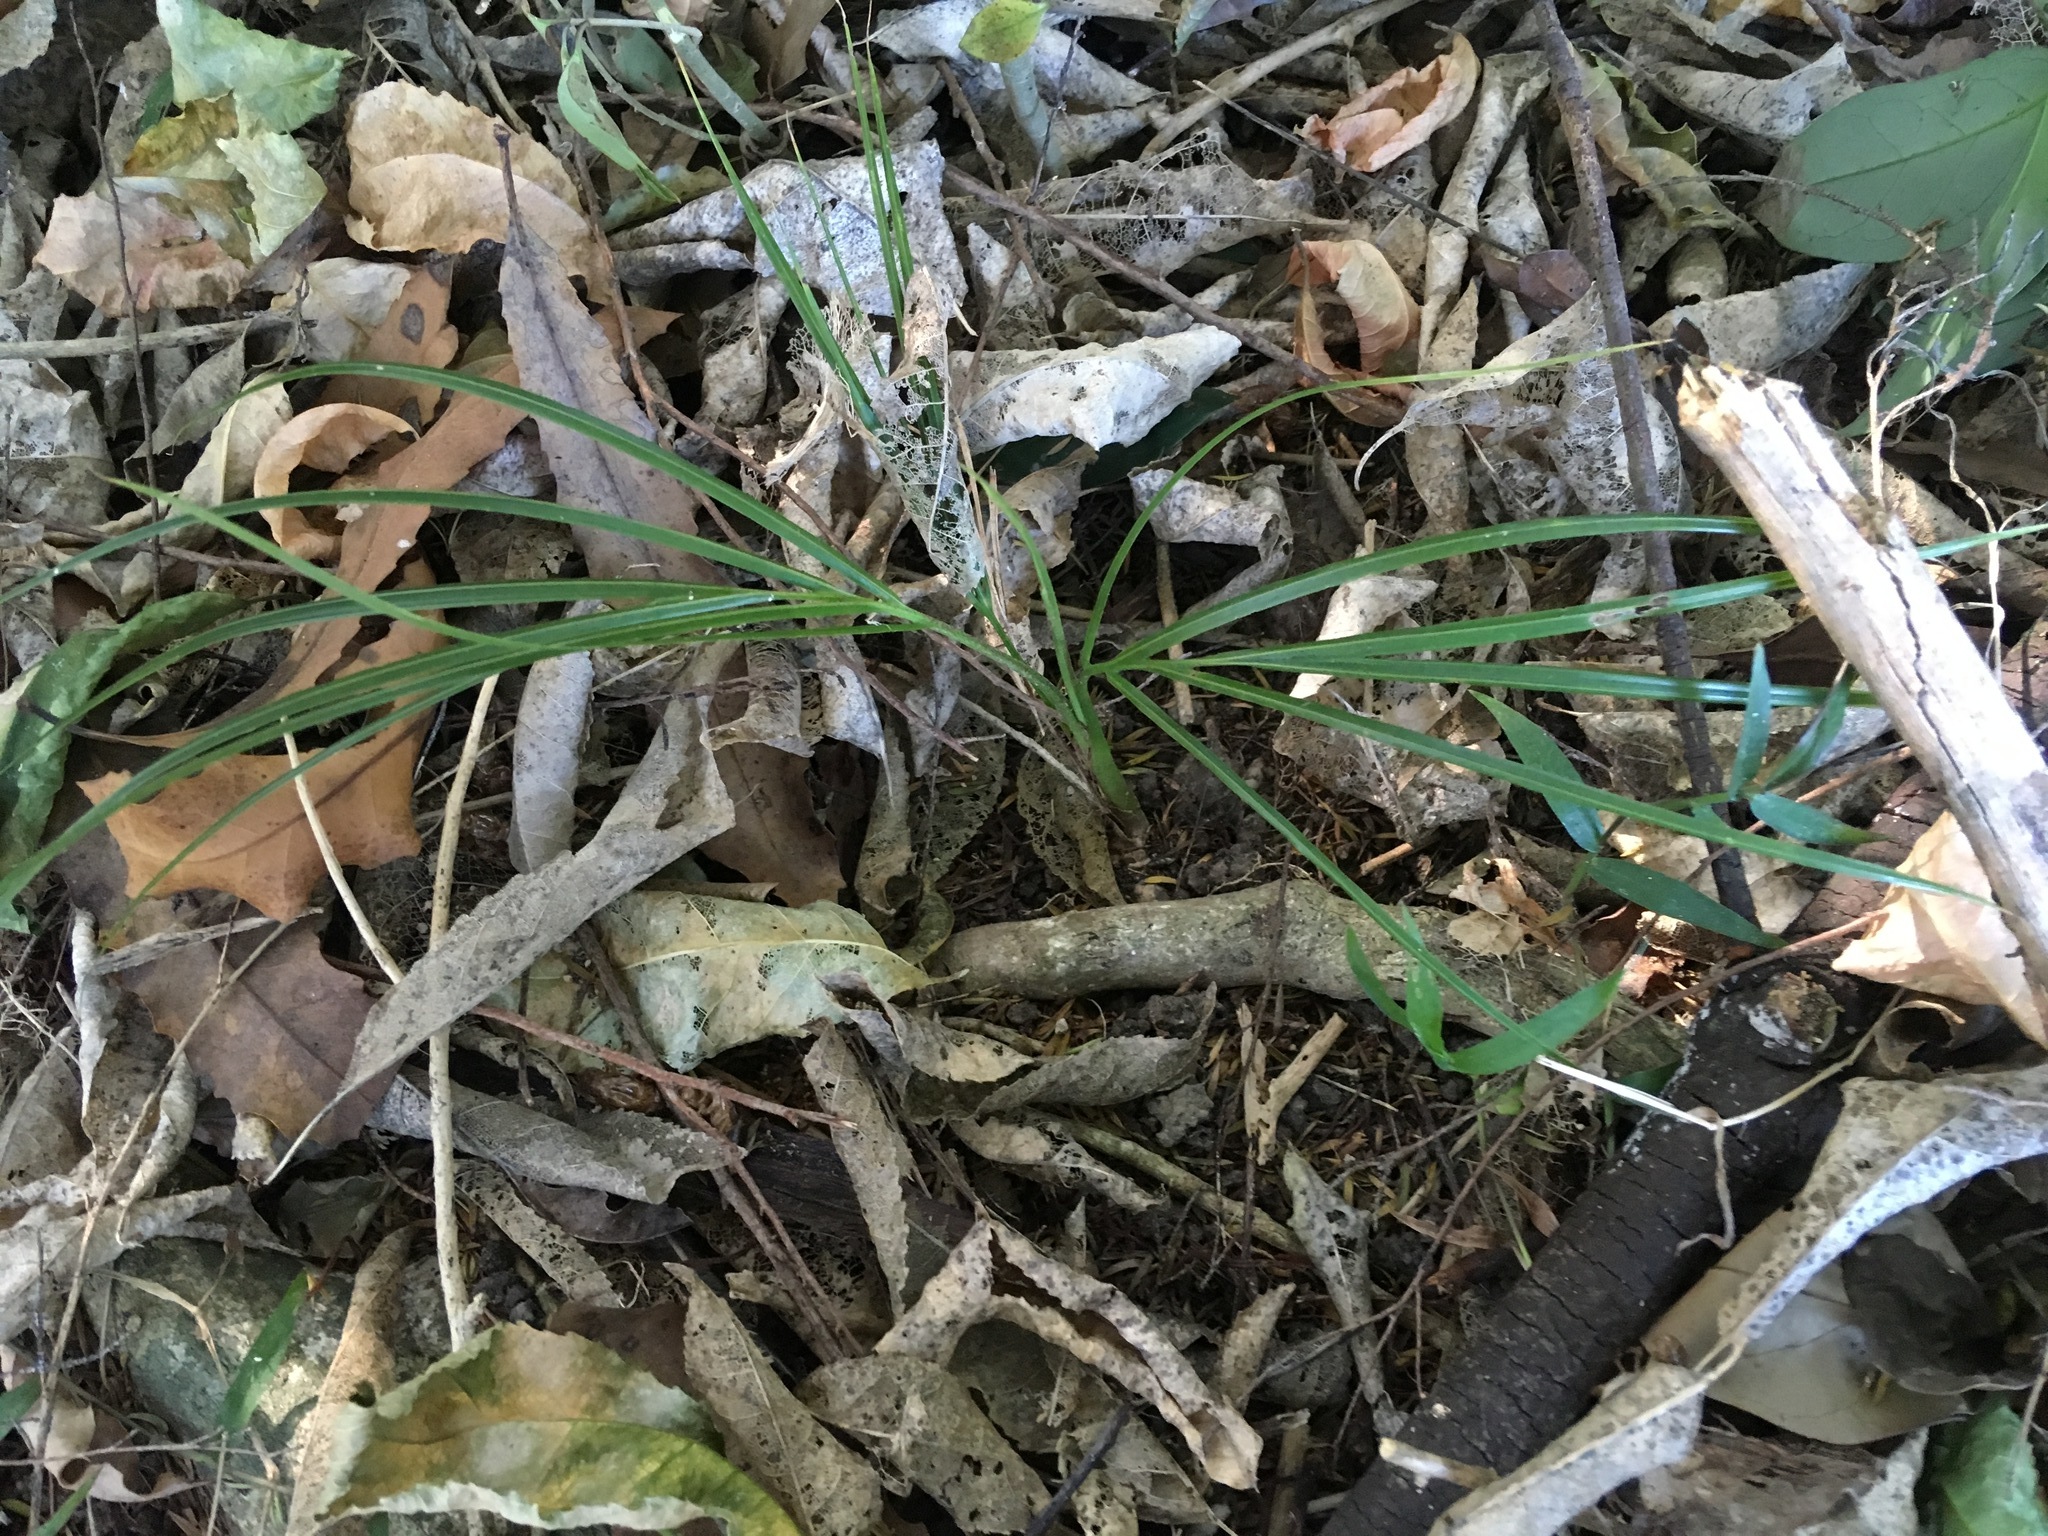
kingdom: Plantae
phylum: Tracheophyta
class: Liliopsida
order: Arecales
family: Arecaceae
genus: Rhopalostylis
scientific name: Rhopalostylis sapida
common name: Feather-duster palm
